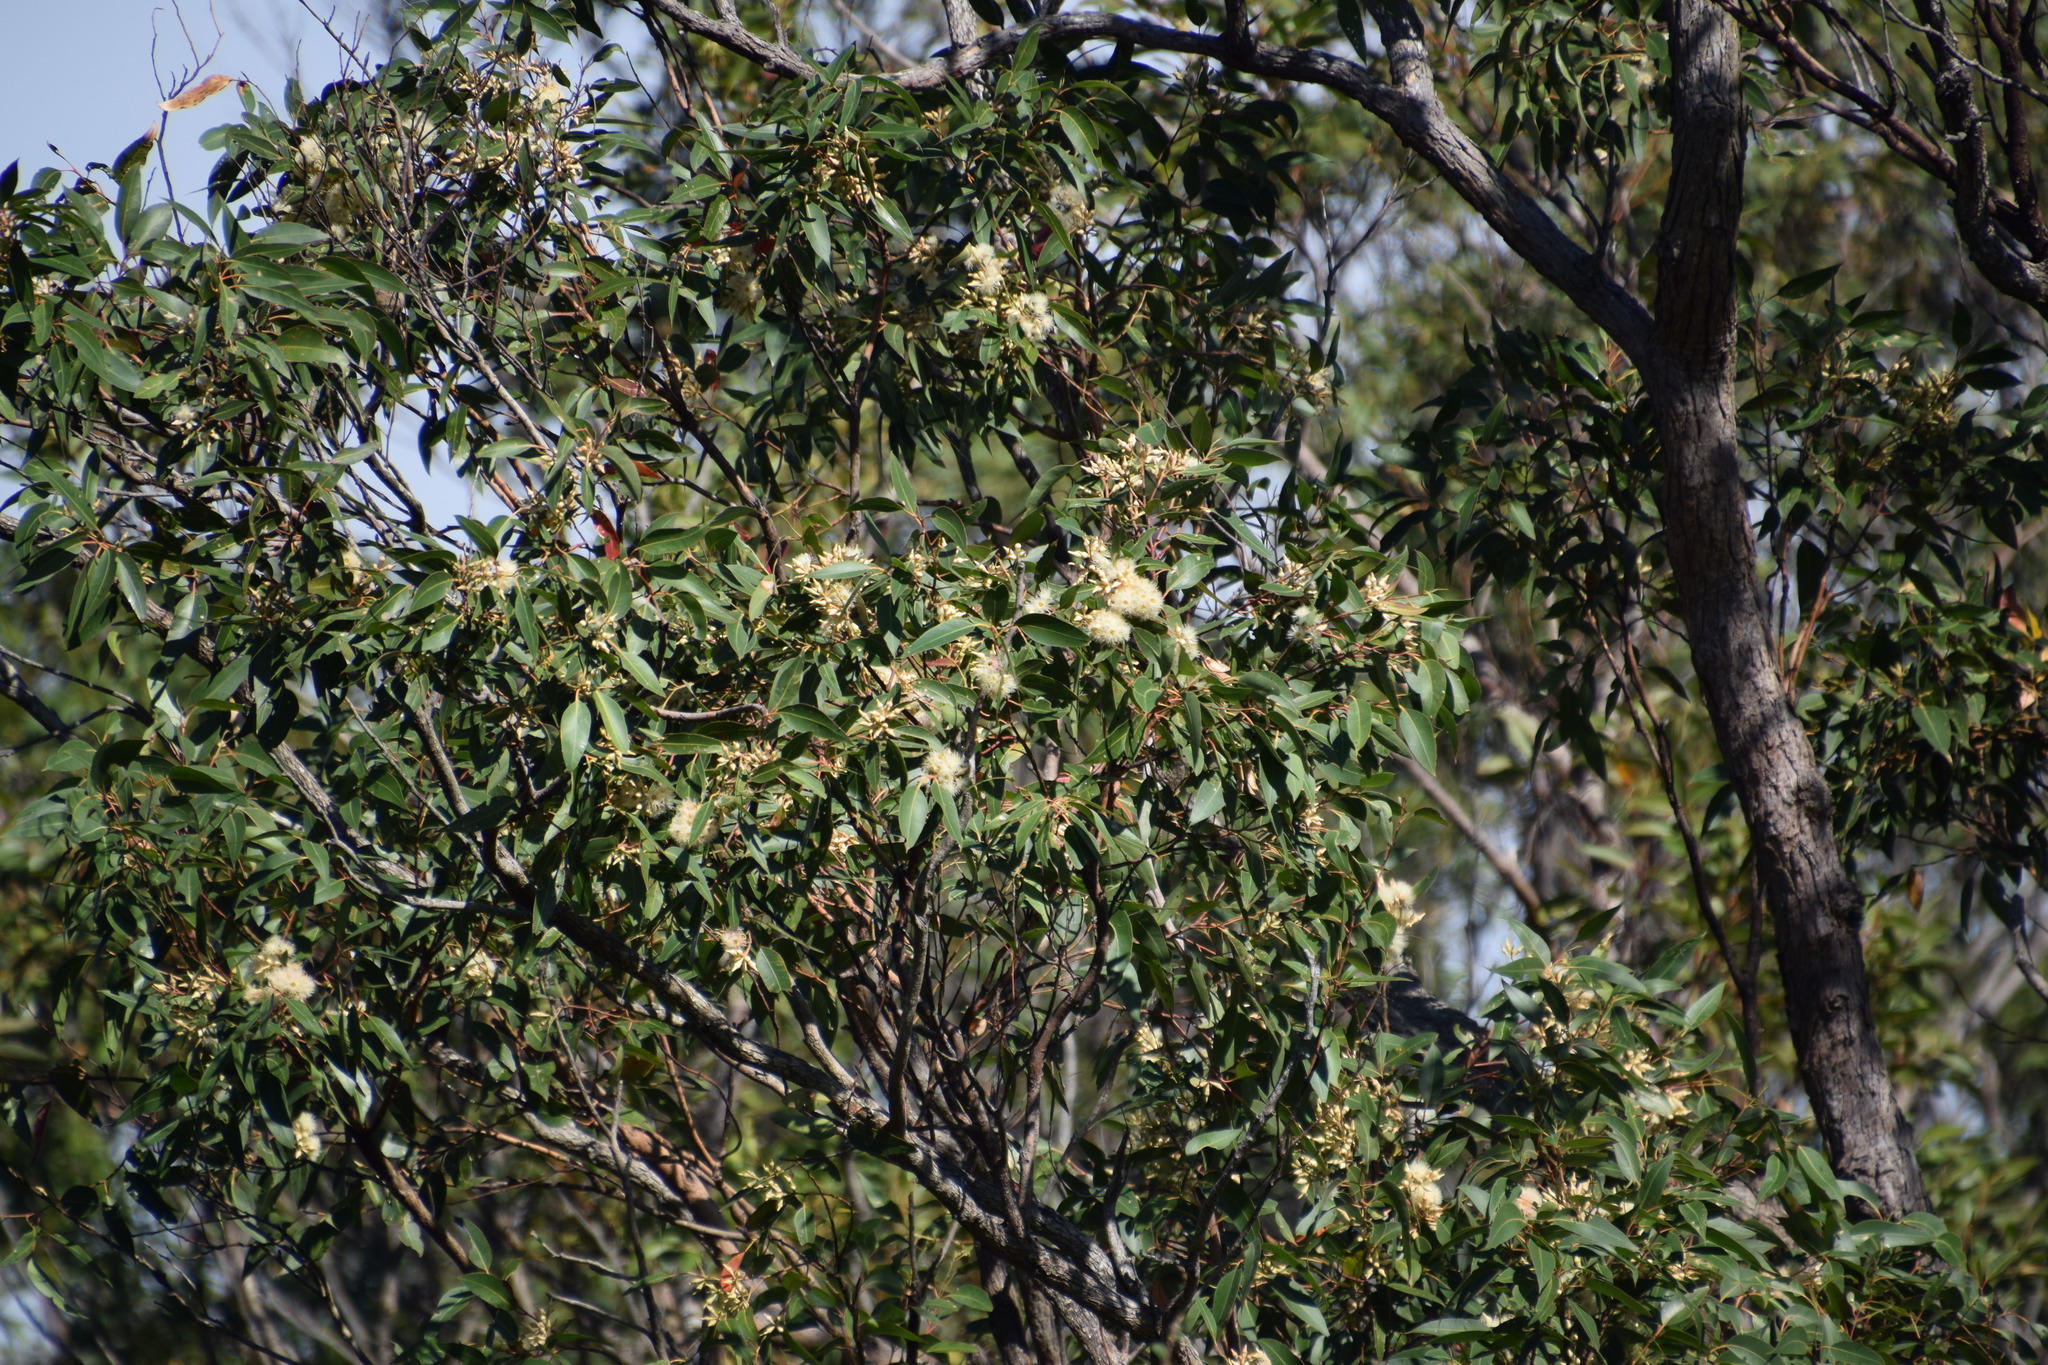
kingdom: Plantae
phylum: Tracheophyta
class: Magnoliopsida
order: Myrtales
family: Myrtaceae
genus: Eucalyptus
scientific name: Eucalyptus robusta
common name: Swampmahogany
